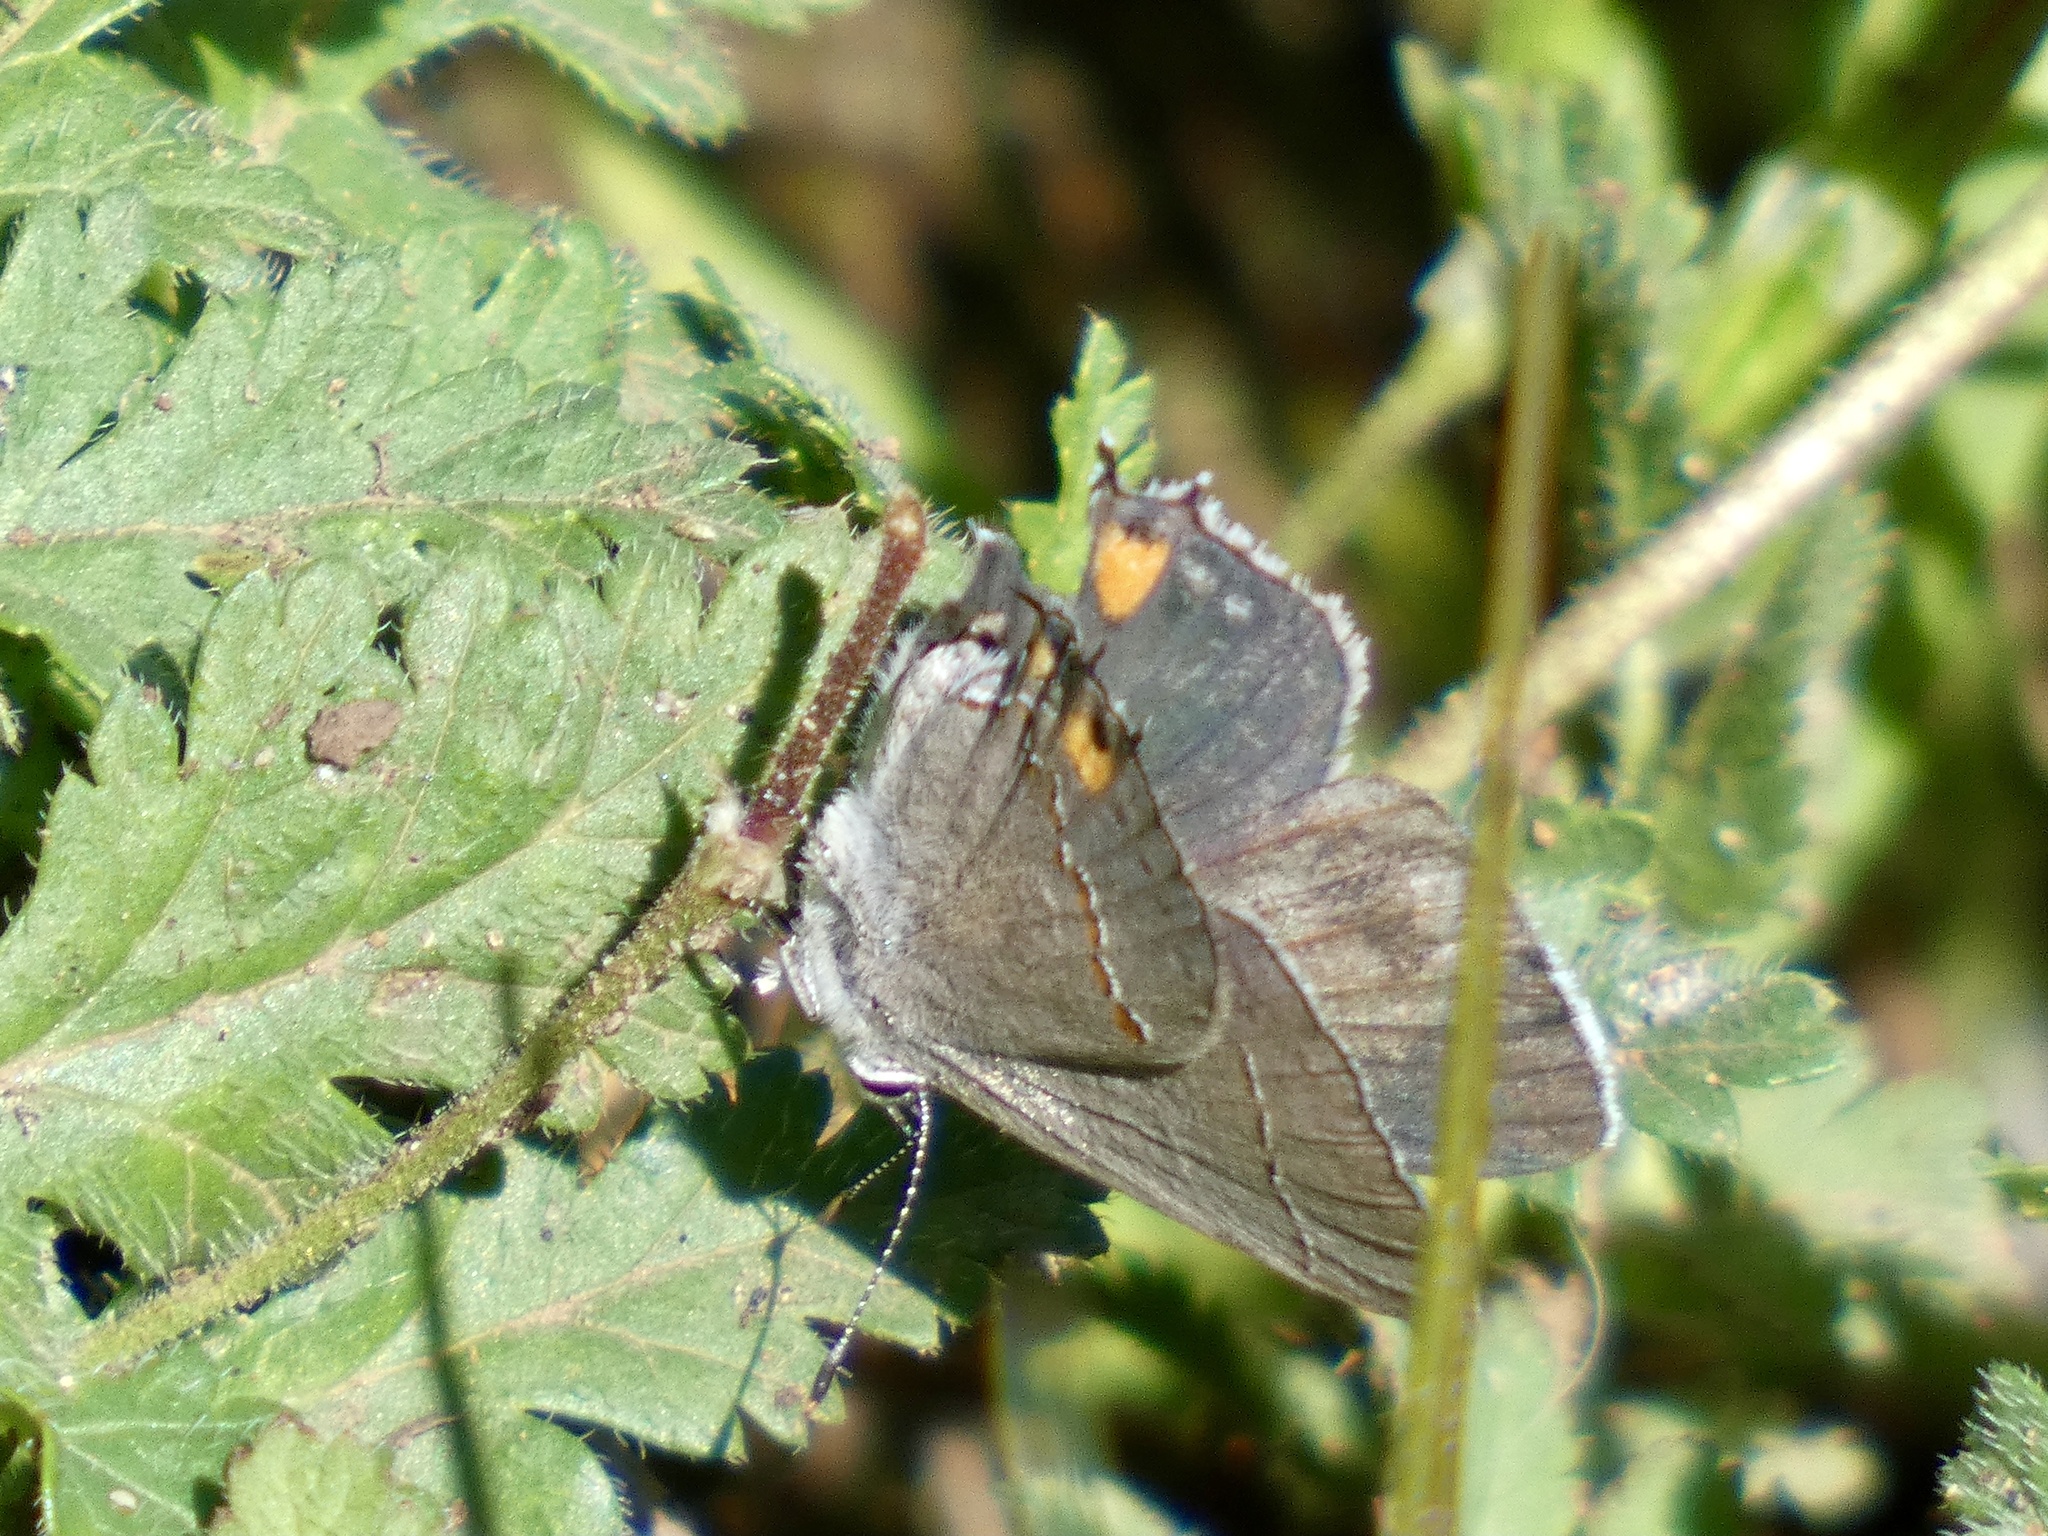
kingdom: Animalia
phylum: Arthropoda
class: Insecta
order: Lepidoptera
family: Lycaenidae
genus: Strymon
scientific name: Strymon melinus
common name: Gray hairstreak
